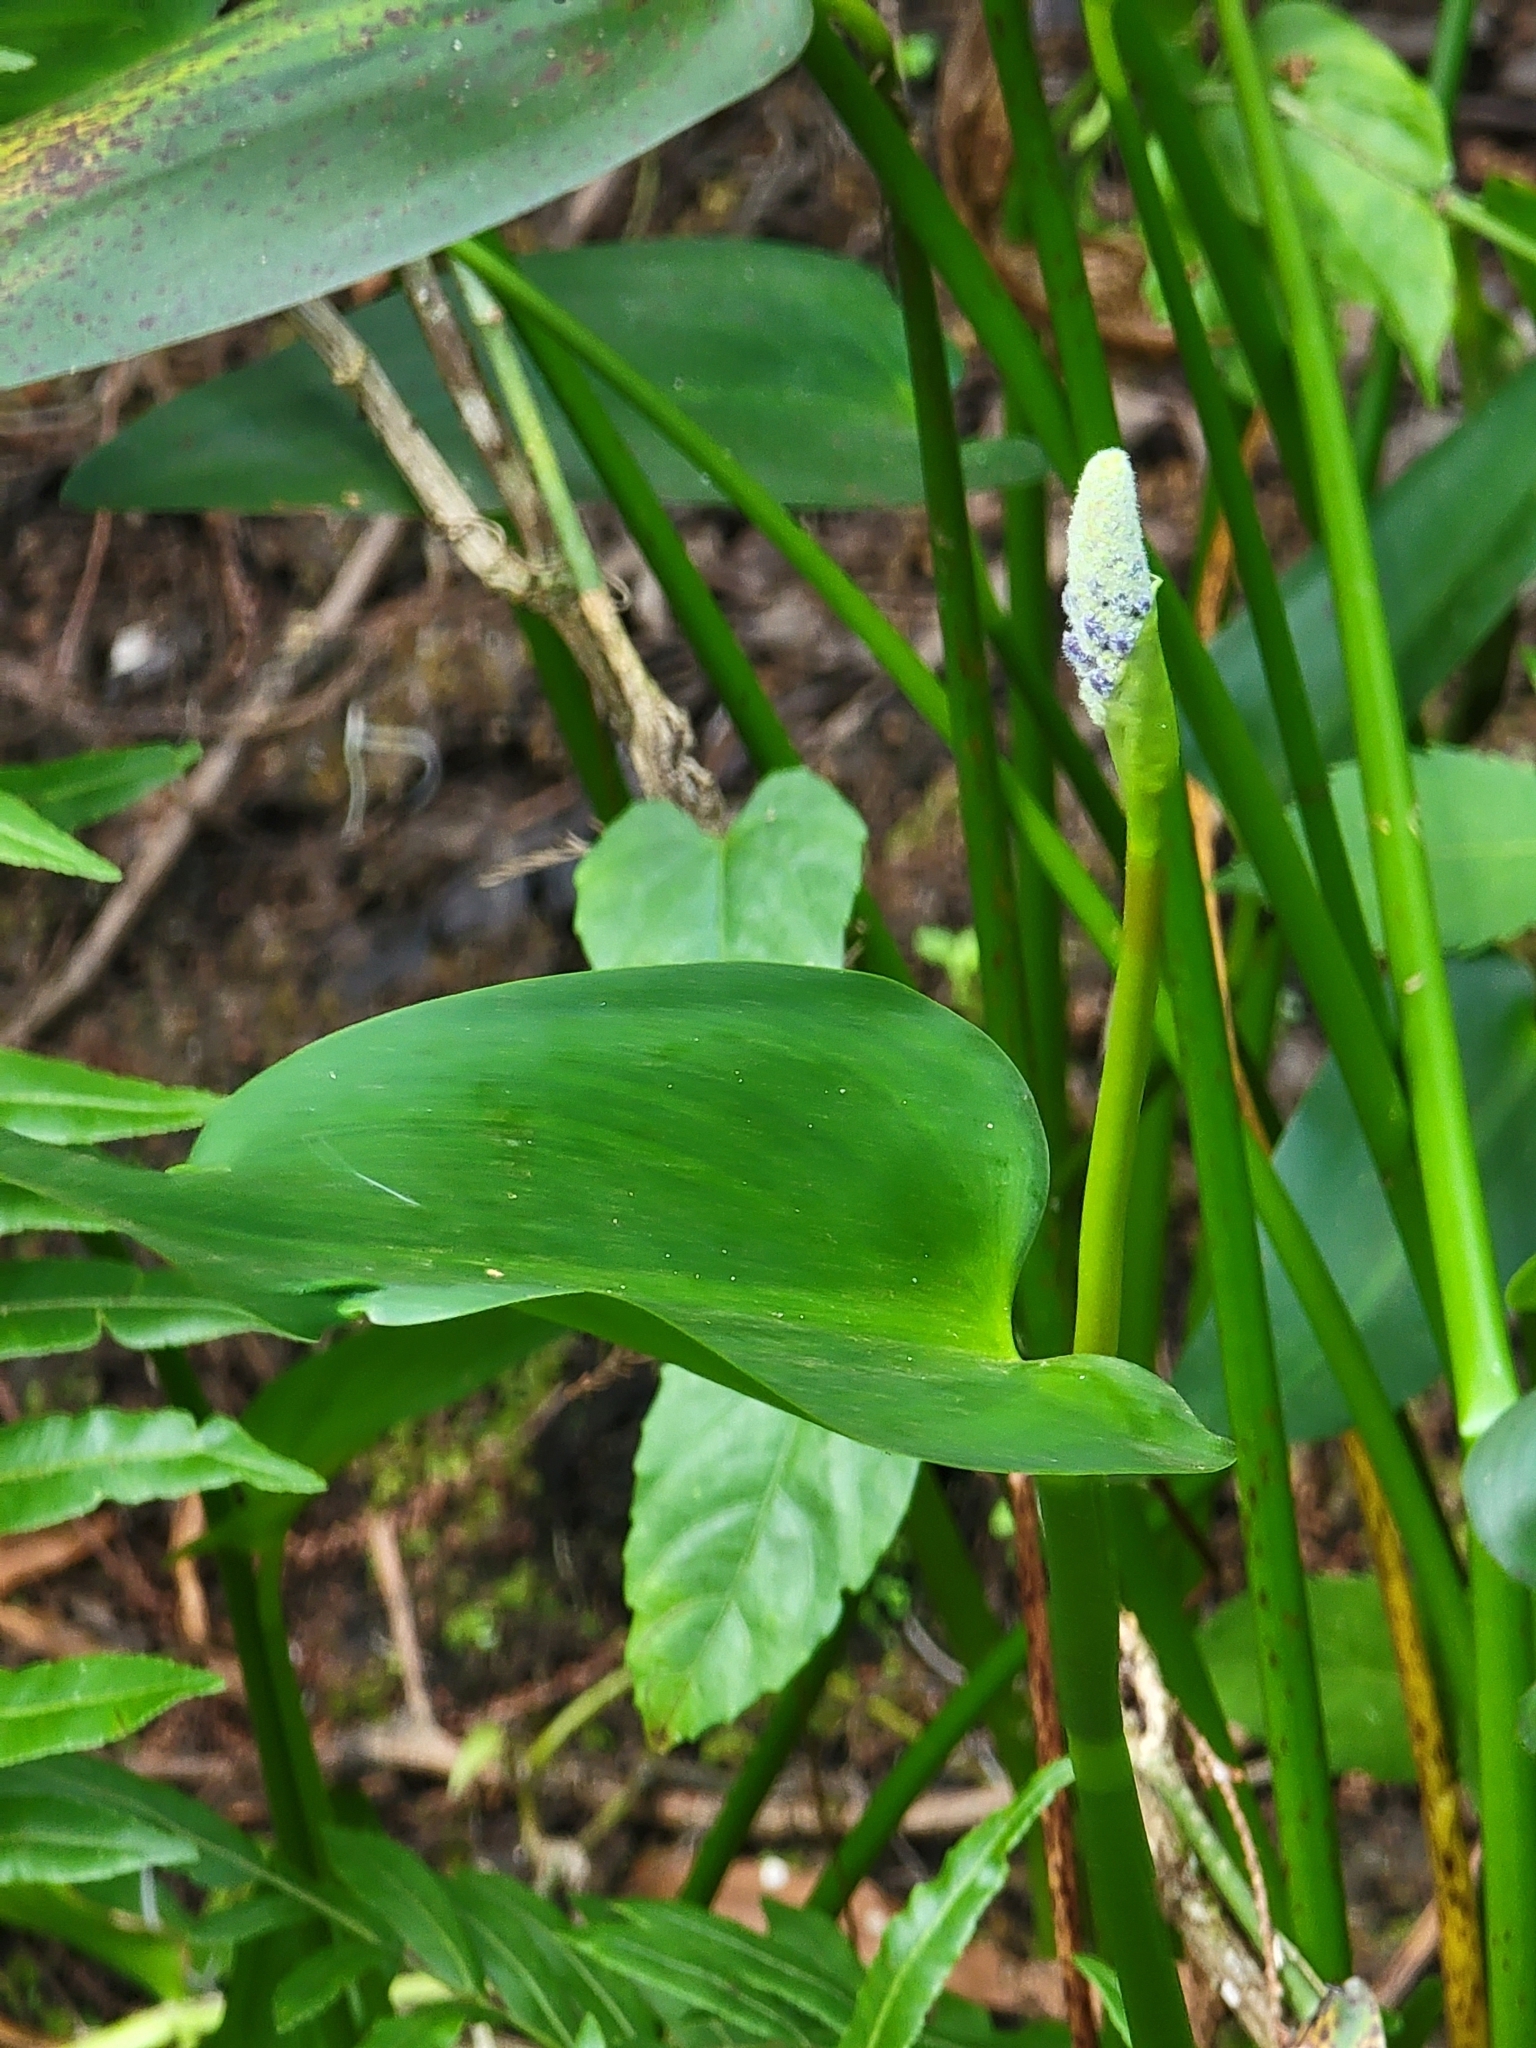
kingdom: Plantae
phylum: Tracheophyta
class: Liliopsida
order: Commelinales
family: Pontederiaceae
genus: Pontederia
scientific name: Pontederia cordata
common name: Pickerelweed
